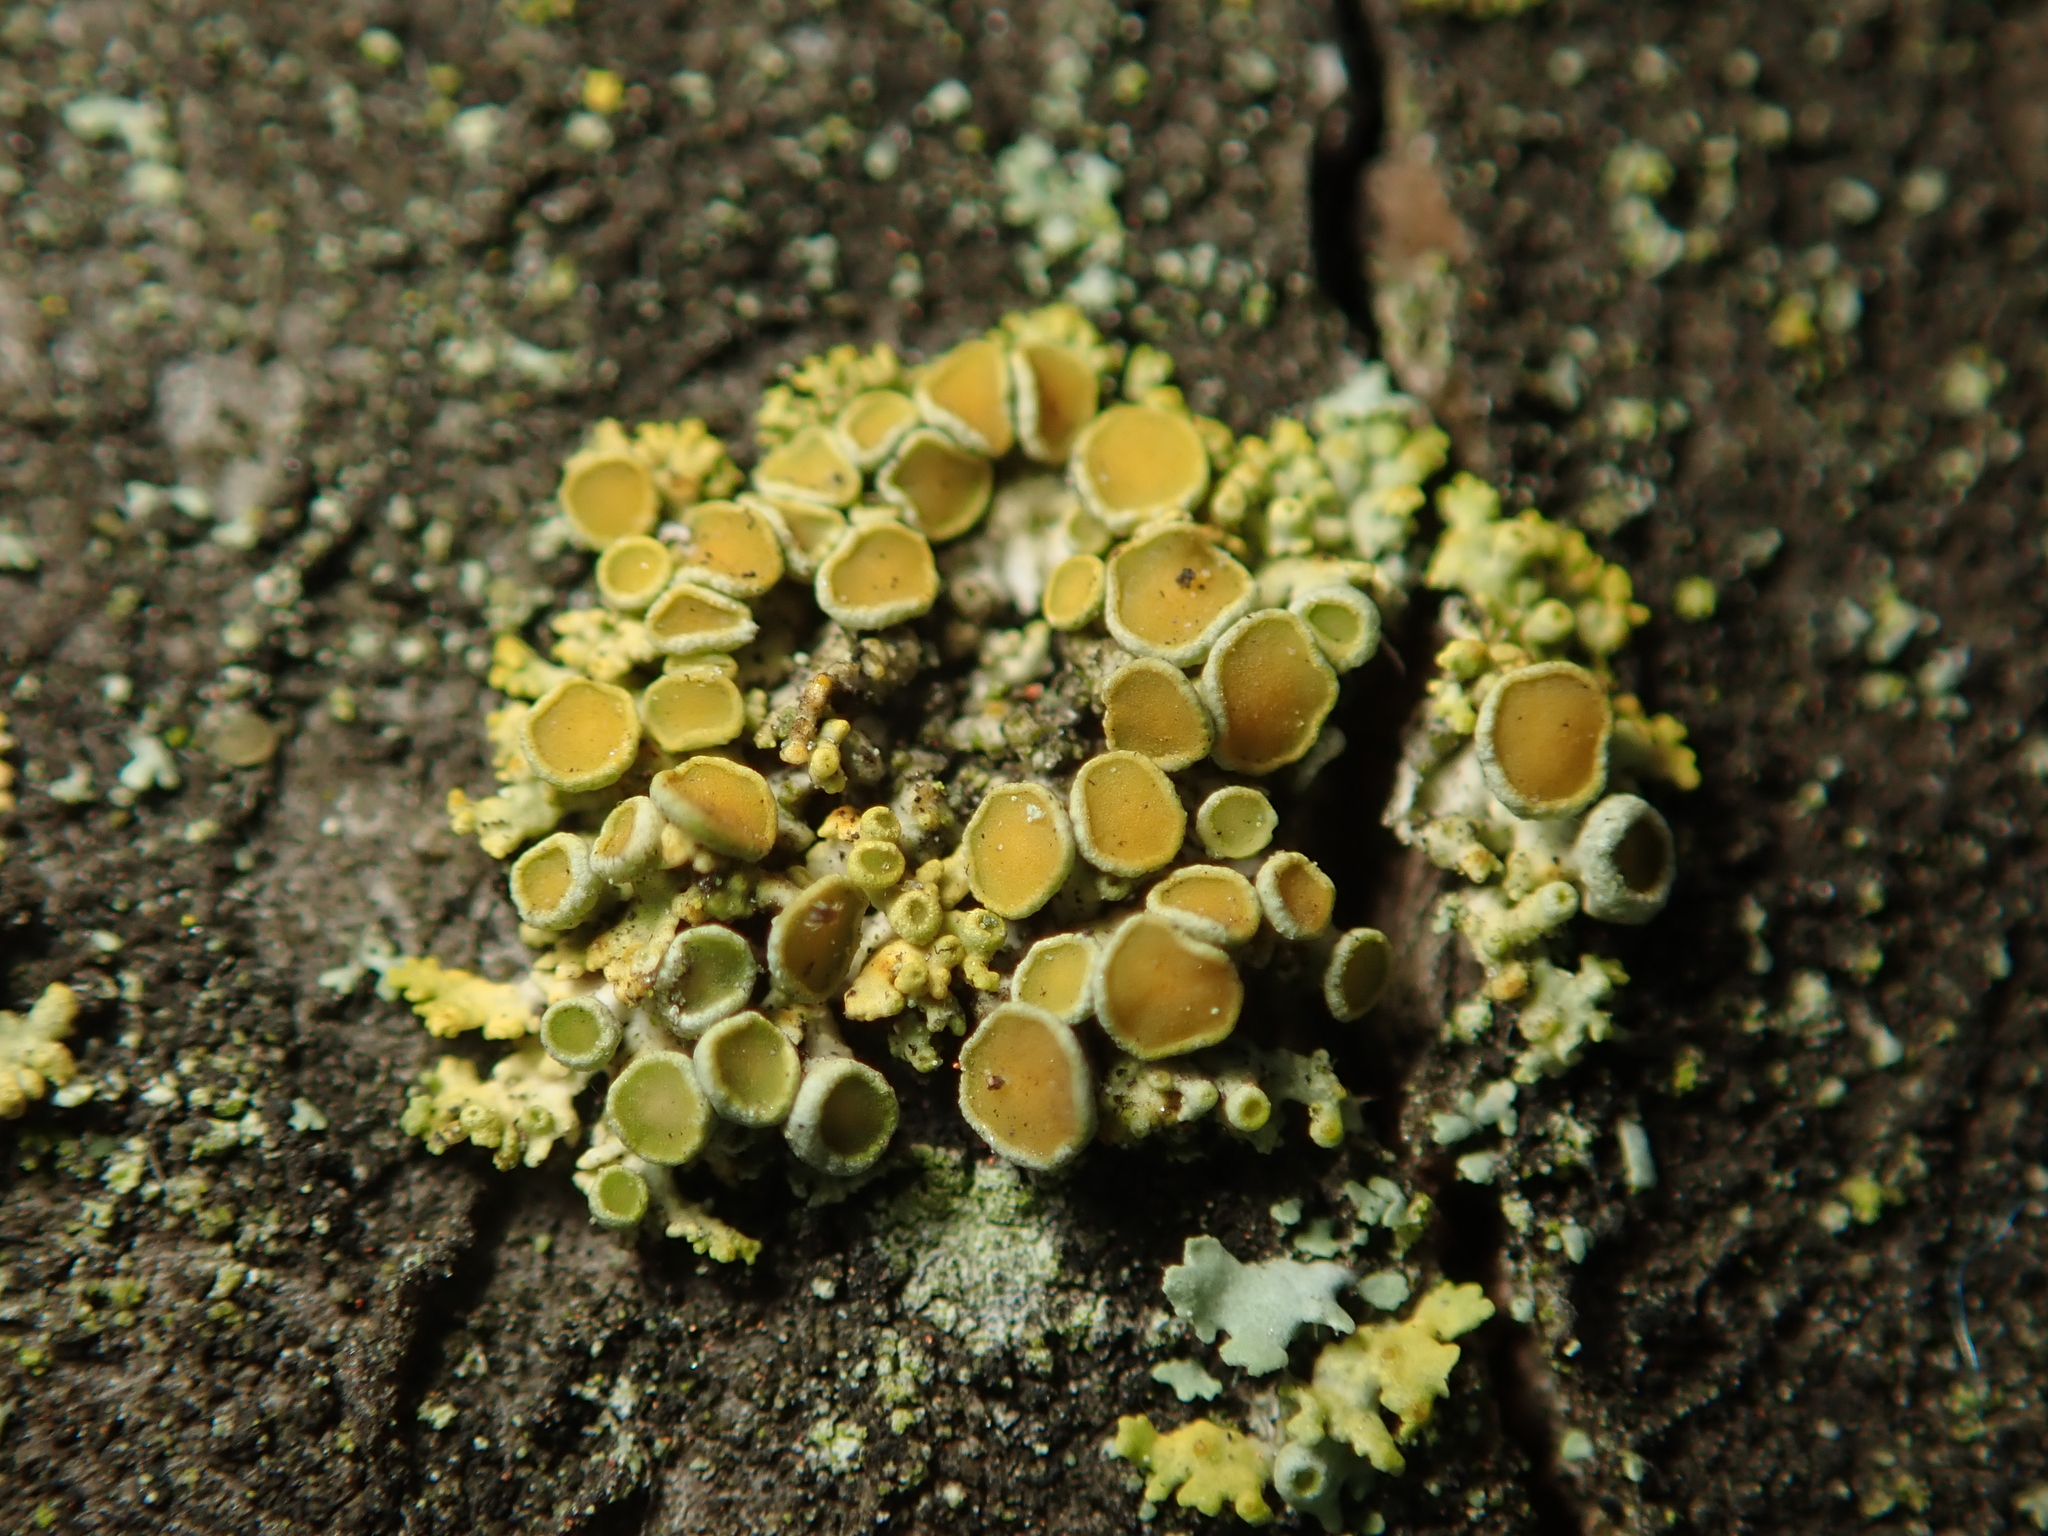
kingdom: Fungi
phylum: Ascomycota
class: Lecanoromycetes
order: Teloschistales
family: Teloschistaceae
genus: Polycauliona
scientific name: Polycauliona polycarpa
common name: Pin-cushion sunburst lichen
